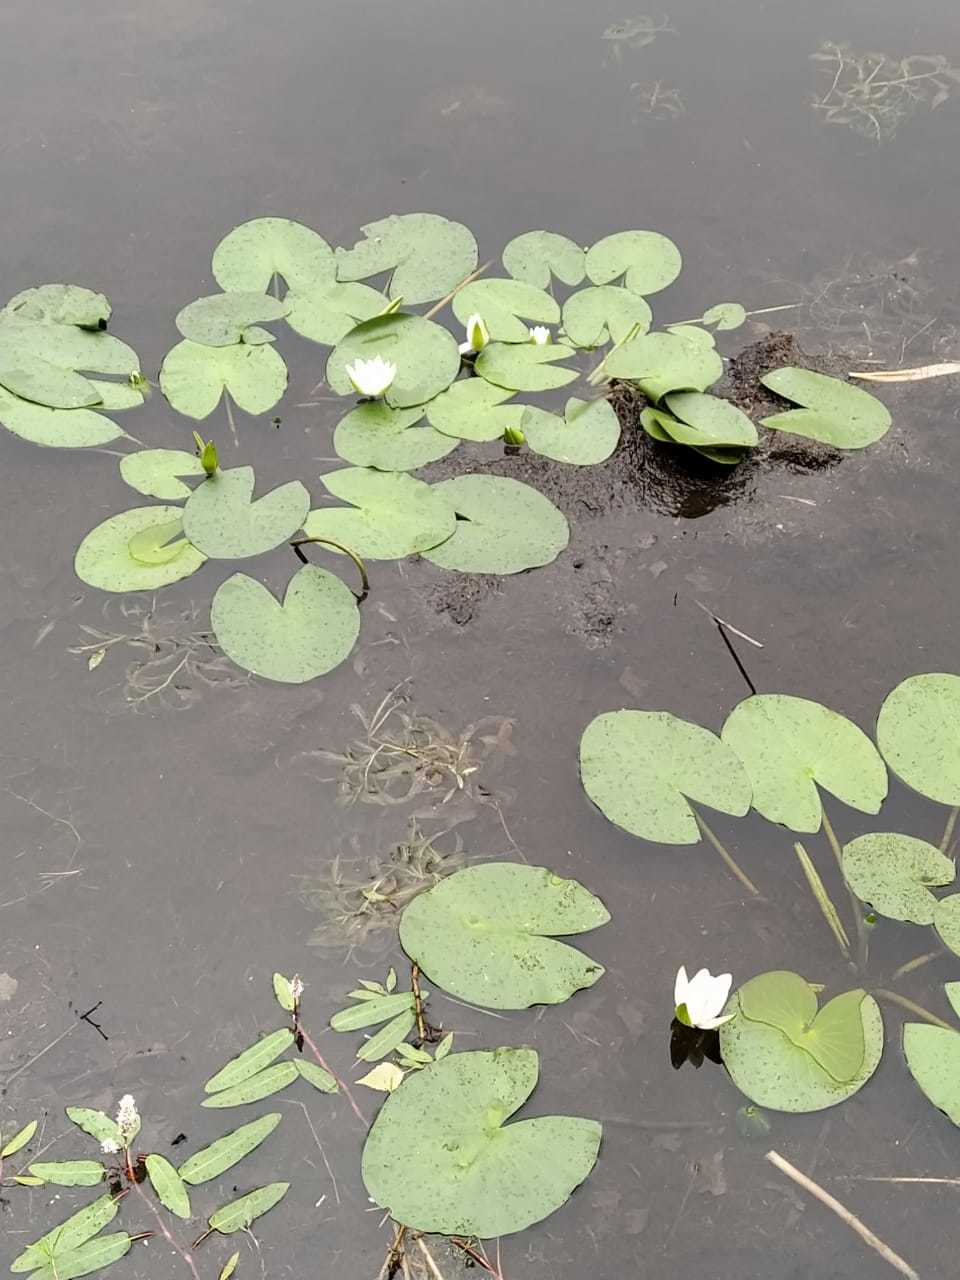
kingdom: Plantae
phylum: Tracheophyta
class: Magnoliopsida
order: Nymphaeales
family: Nymphaeaceae
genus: Nymphaea
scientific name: Nymphaea candida
